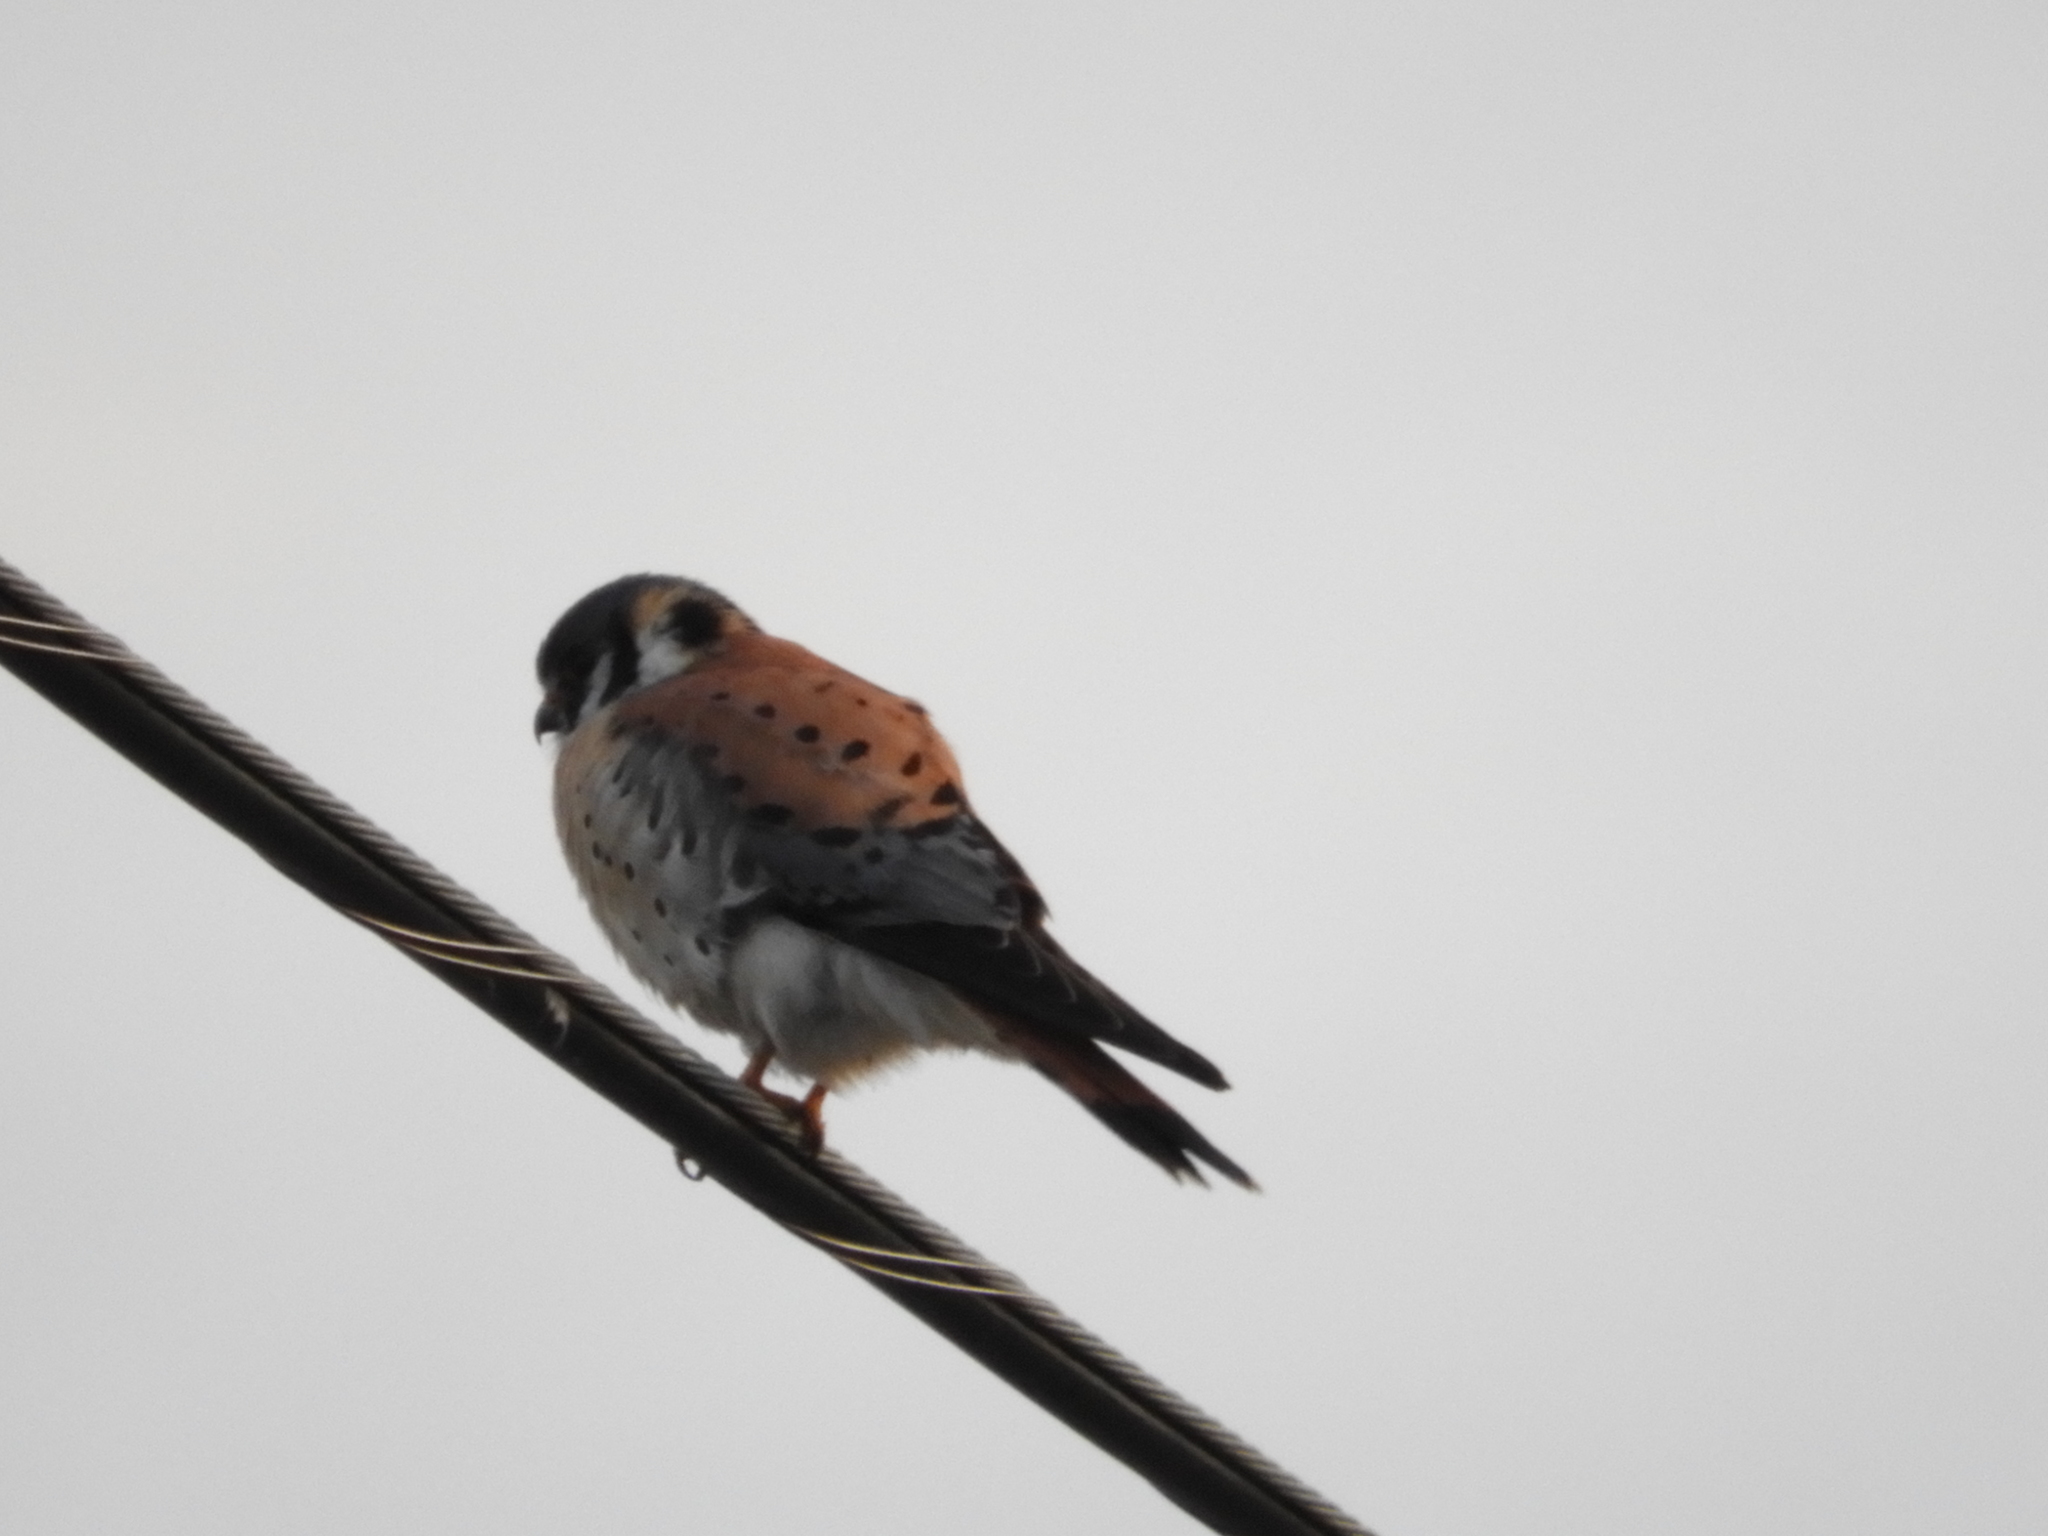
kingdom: Animalia
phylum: Chordata
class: Aves
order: Falconiformes
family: Falconidae
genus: Falco
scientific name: Falco sparverius
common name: American kestrel
